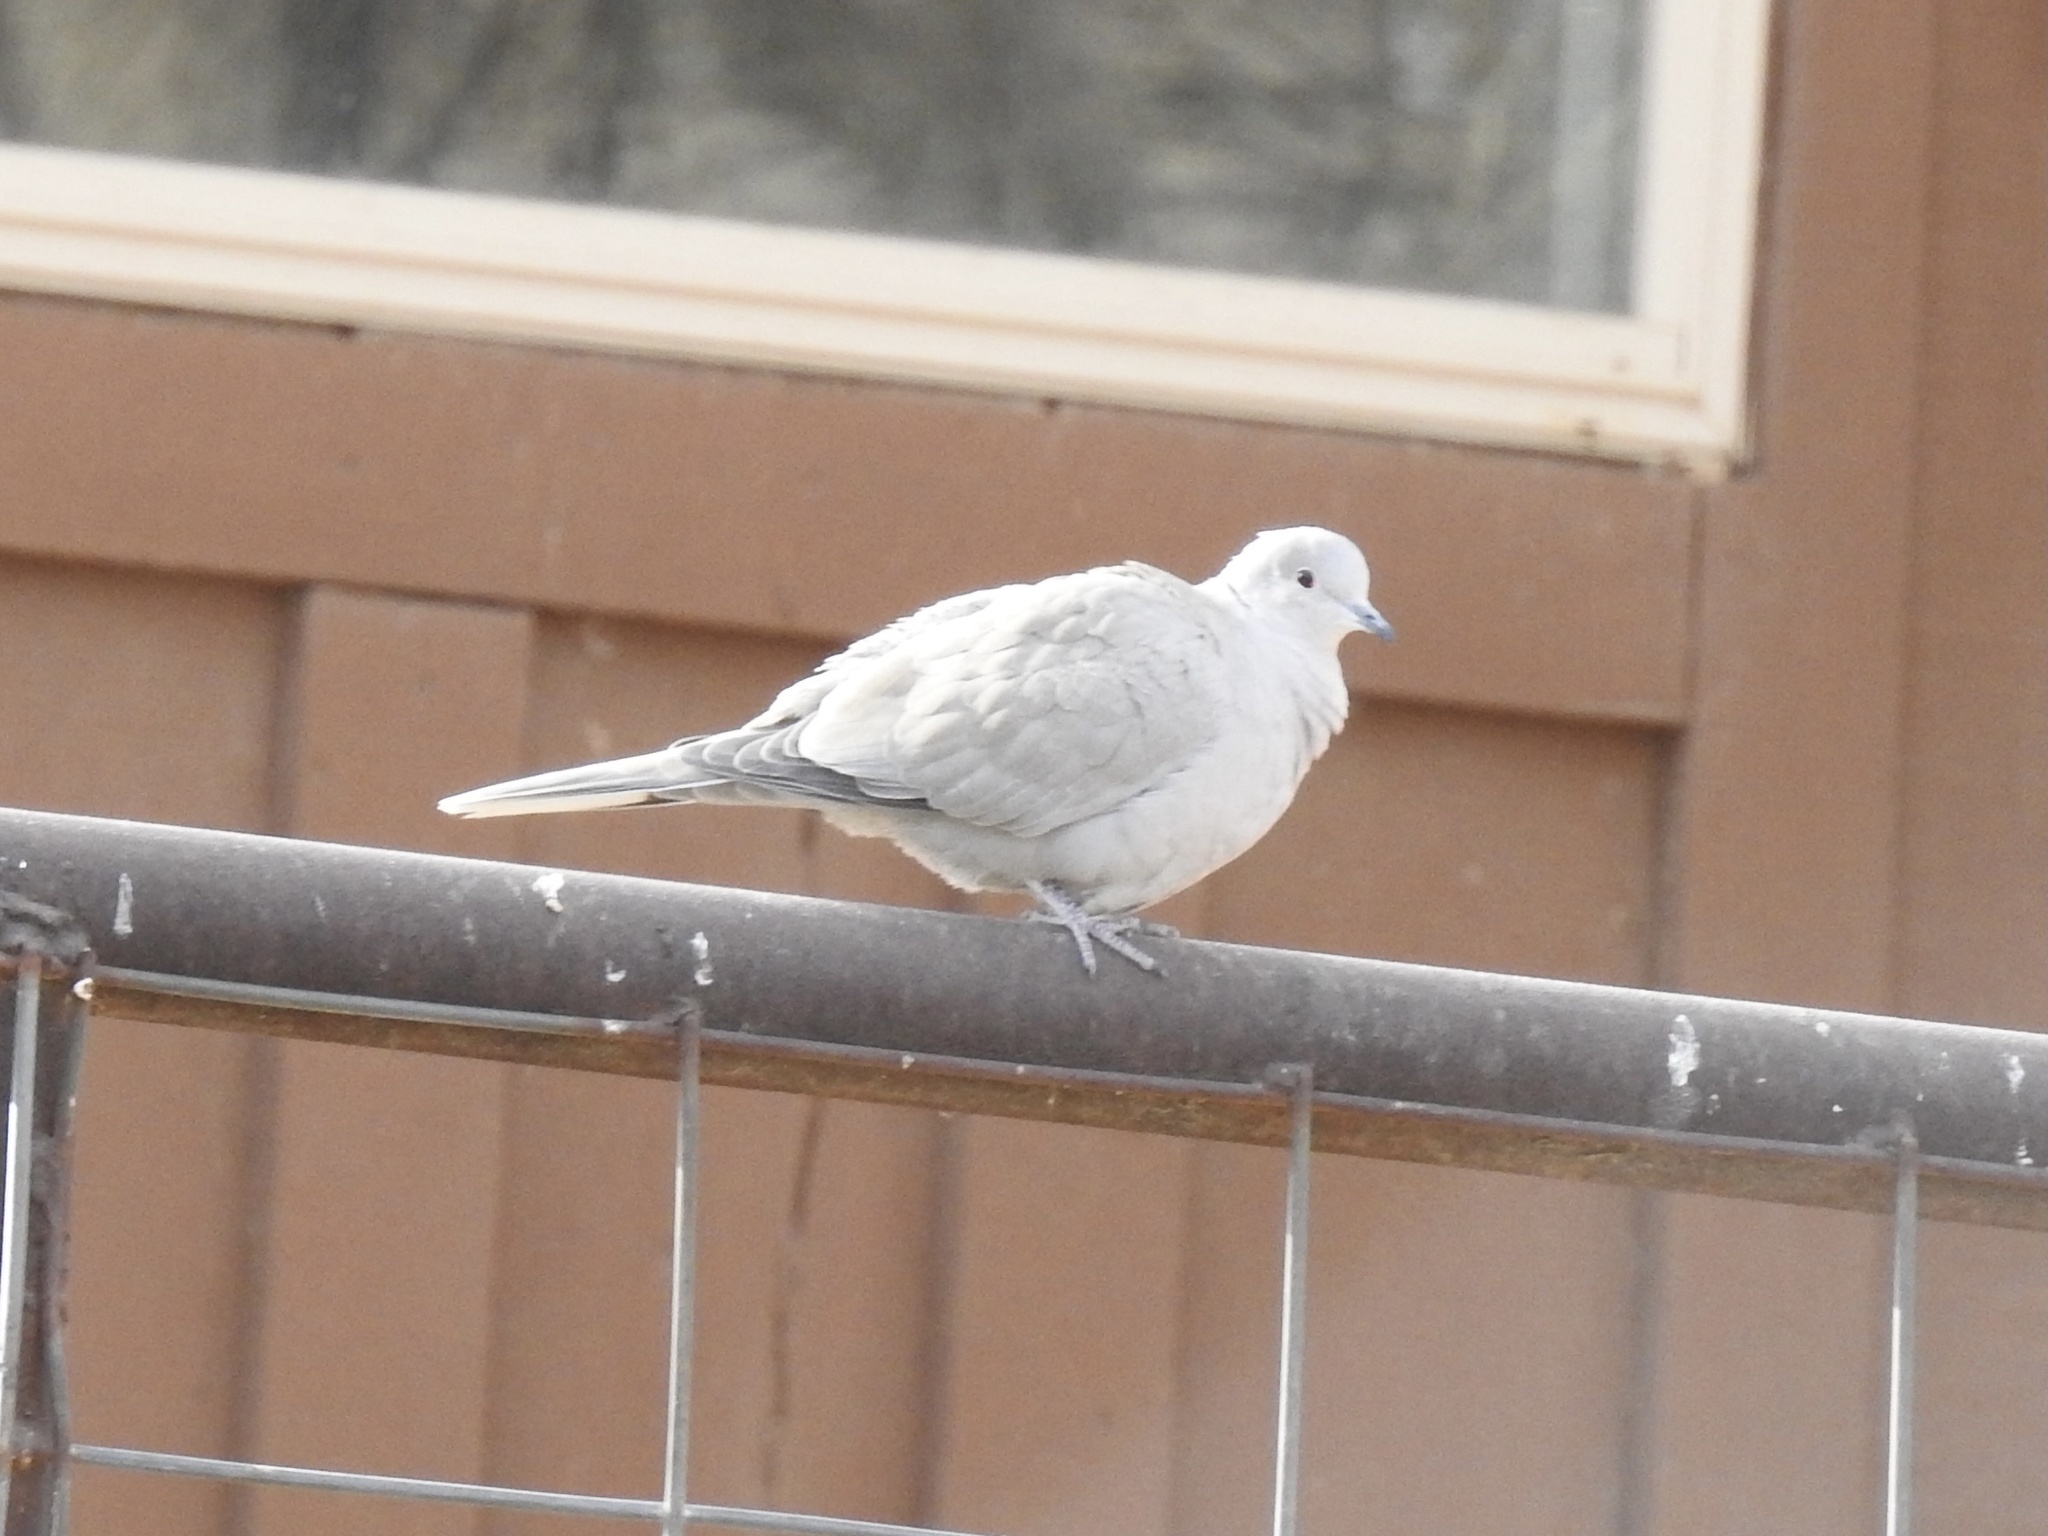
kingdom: Animalia
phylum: Chordata
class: Aves
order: Columbiformes
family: Columbidae
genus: Streptopelia
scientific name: Streptopelia decaocto
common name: Eurasian collared dove
